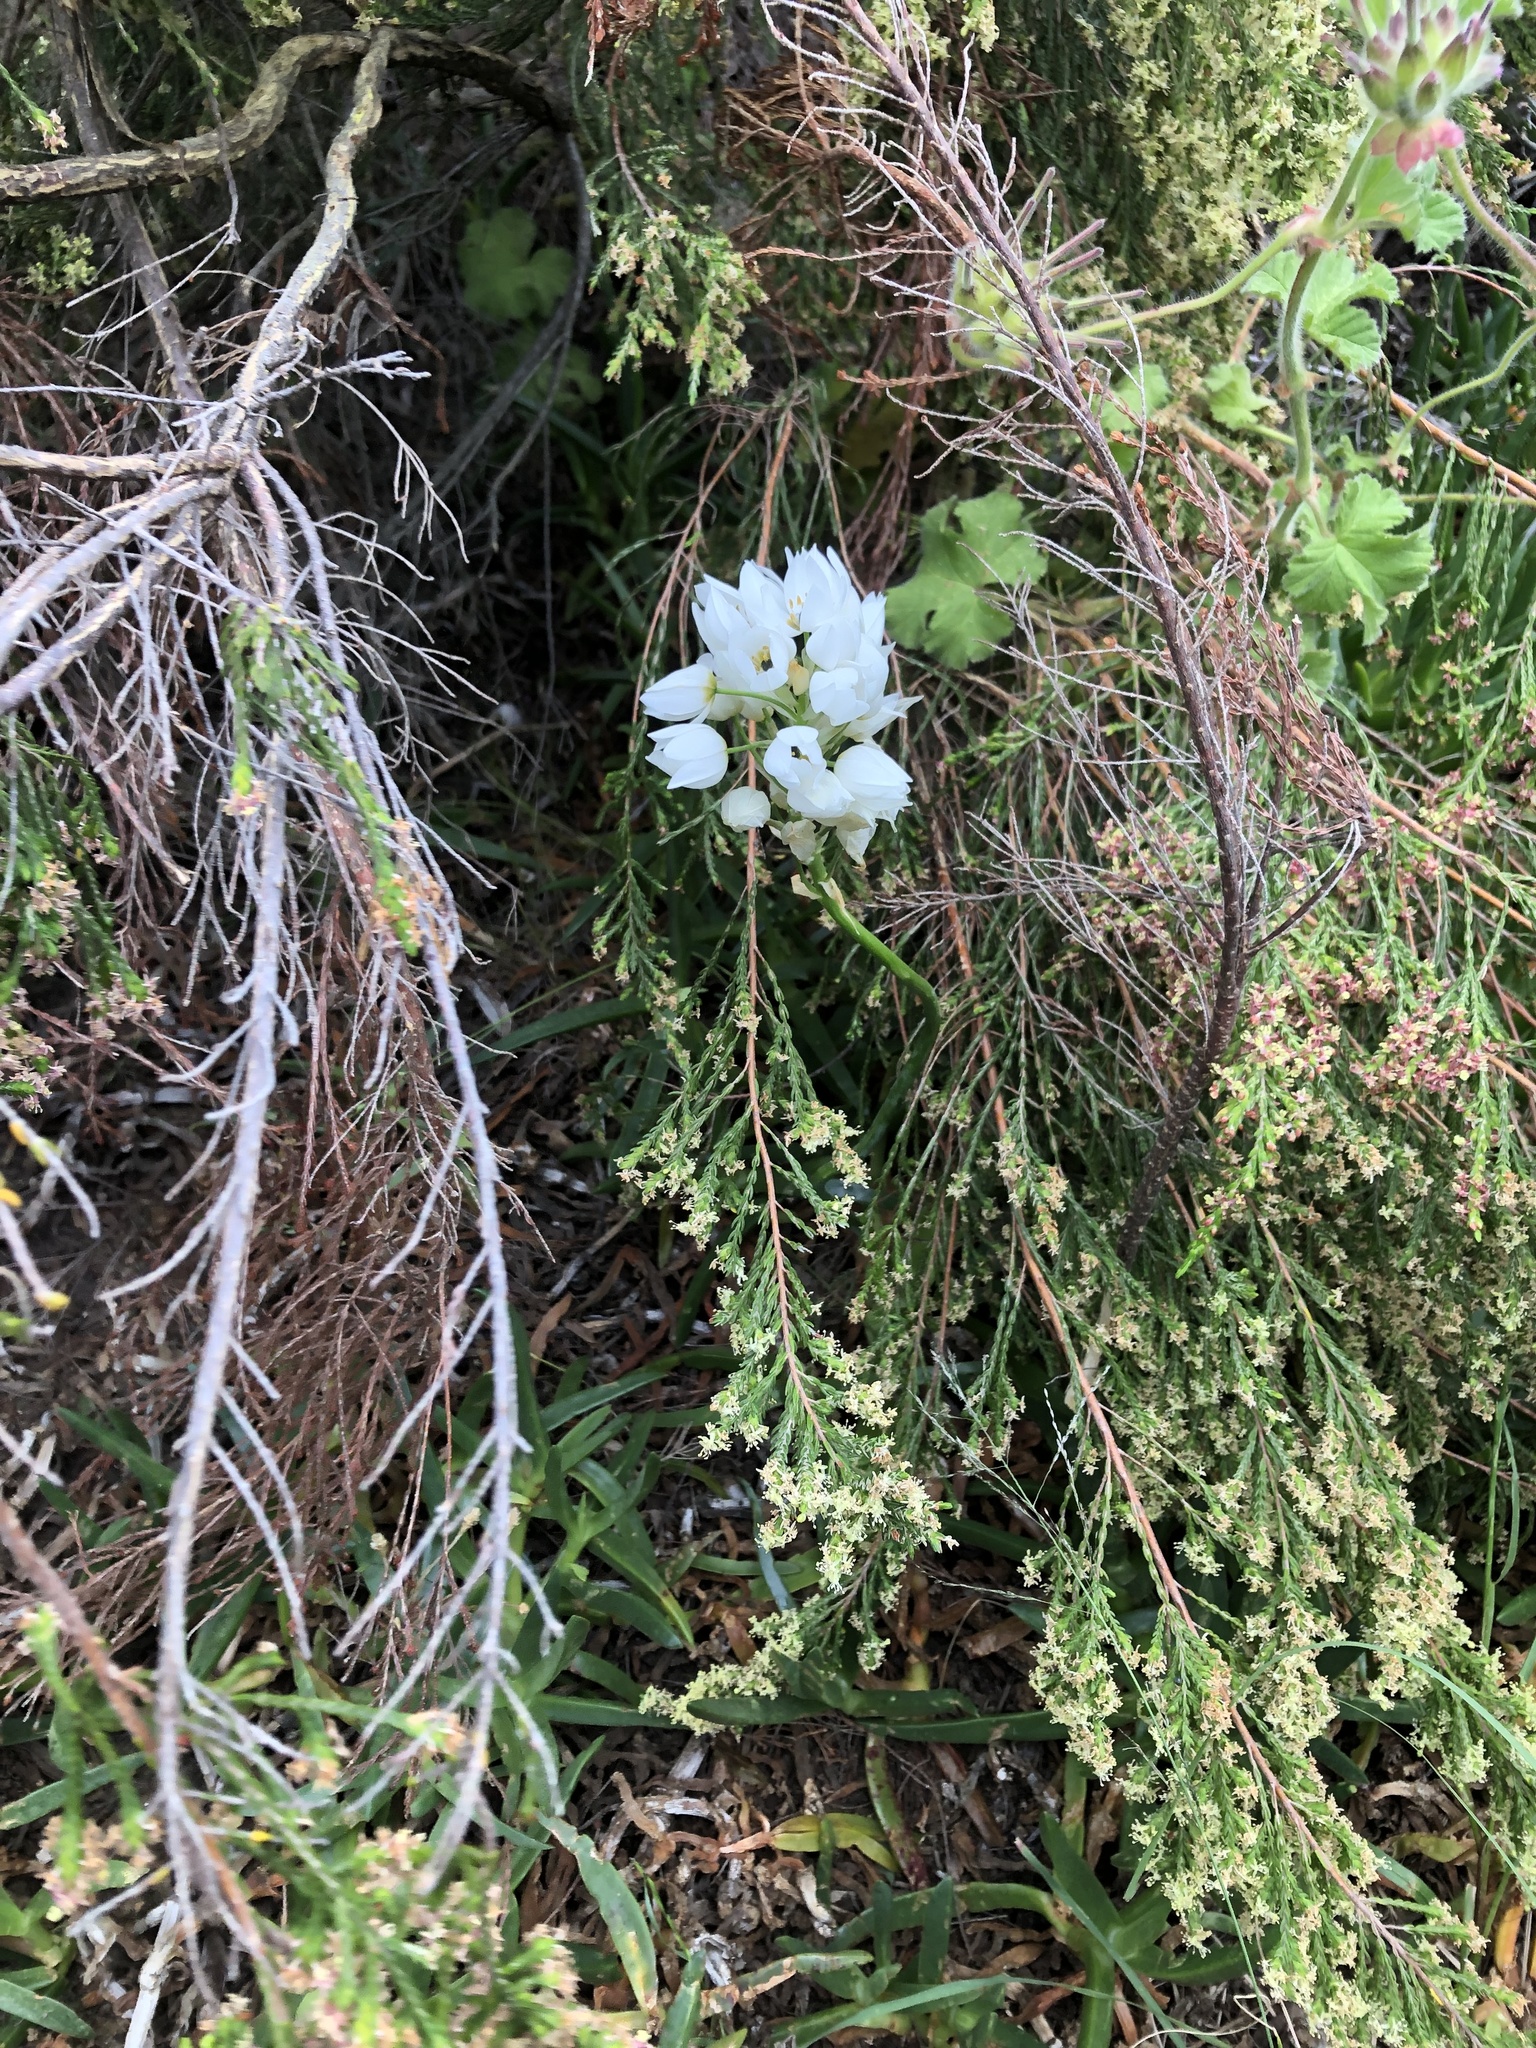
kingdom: Plantae
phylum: Tracheophyta
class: Liliopsida
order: Asparagales
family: Asparagaceae
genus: Ornithogalum
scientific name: Ornithogalum thyrsoides
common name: Chincherinchee
